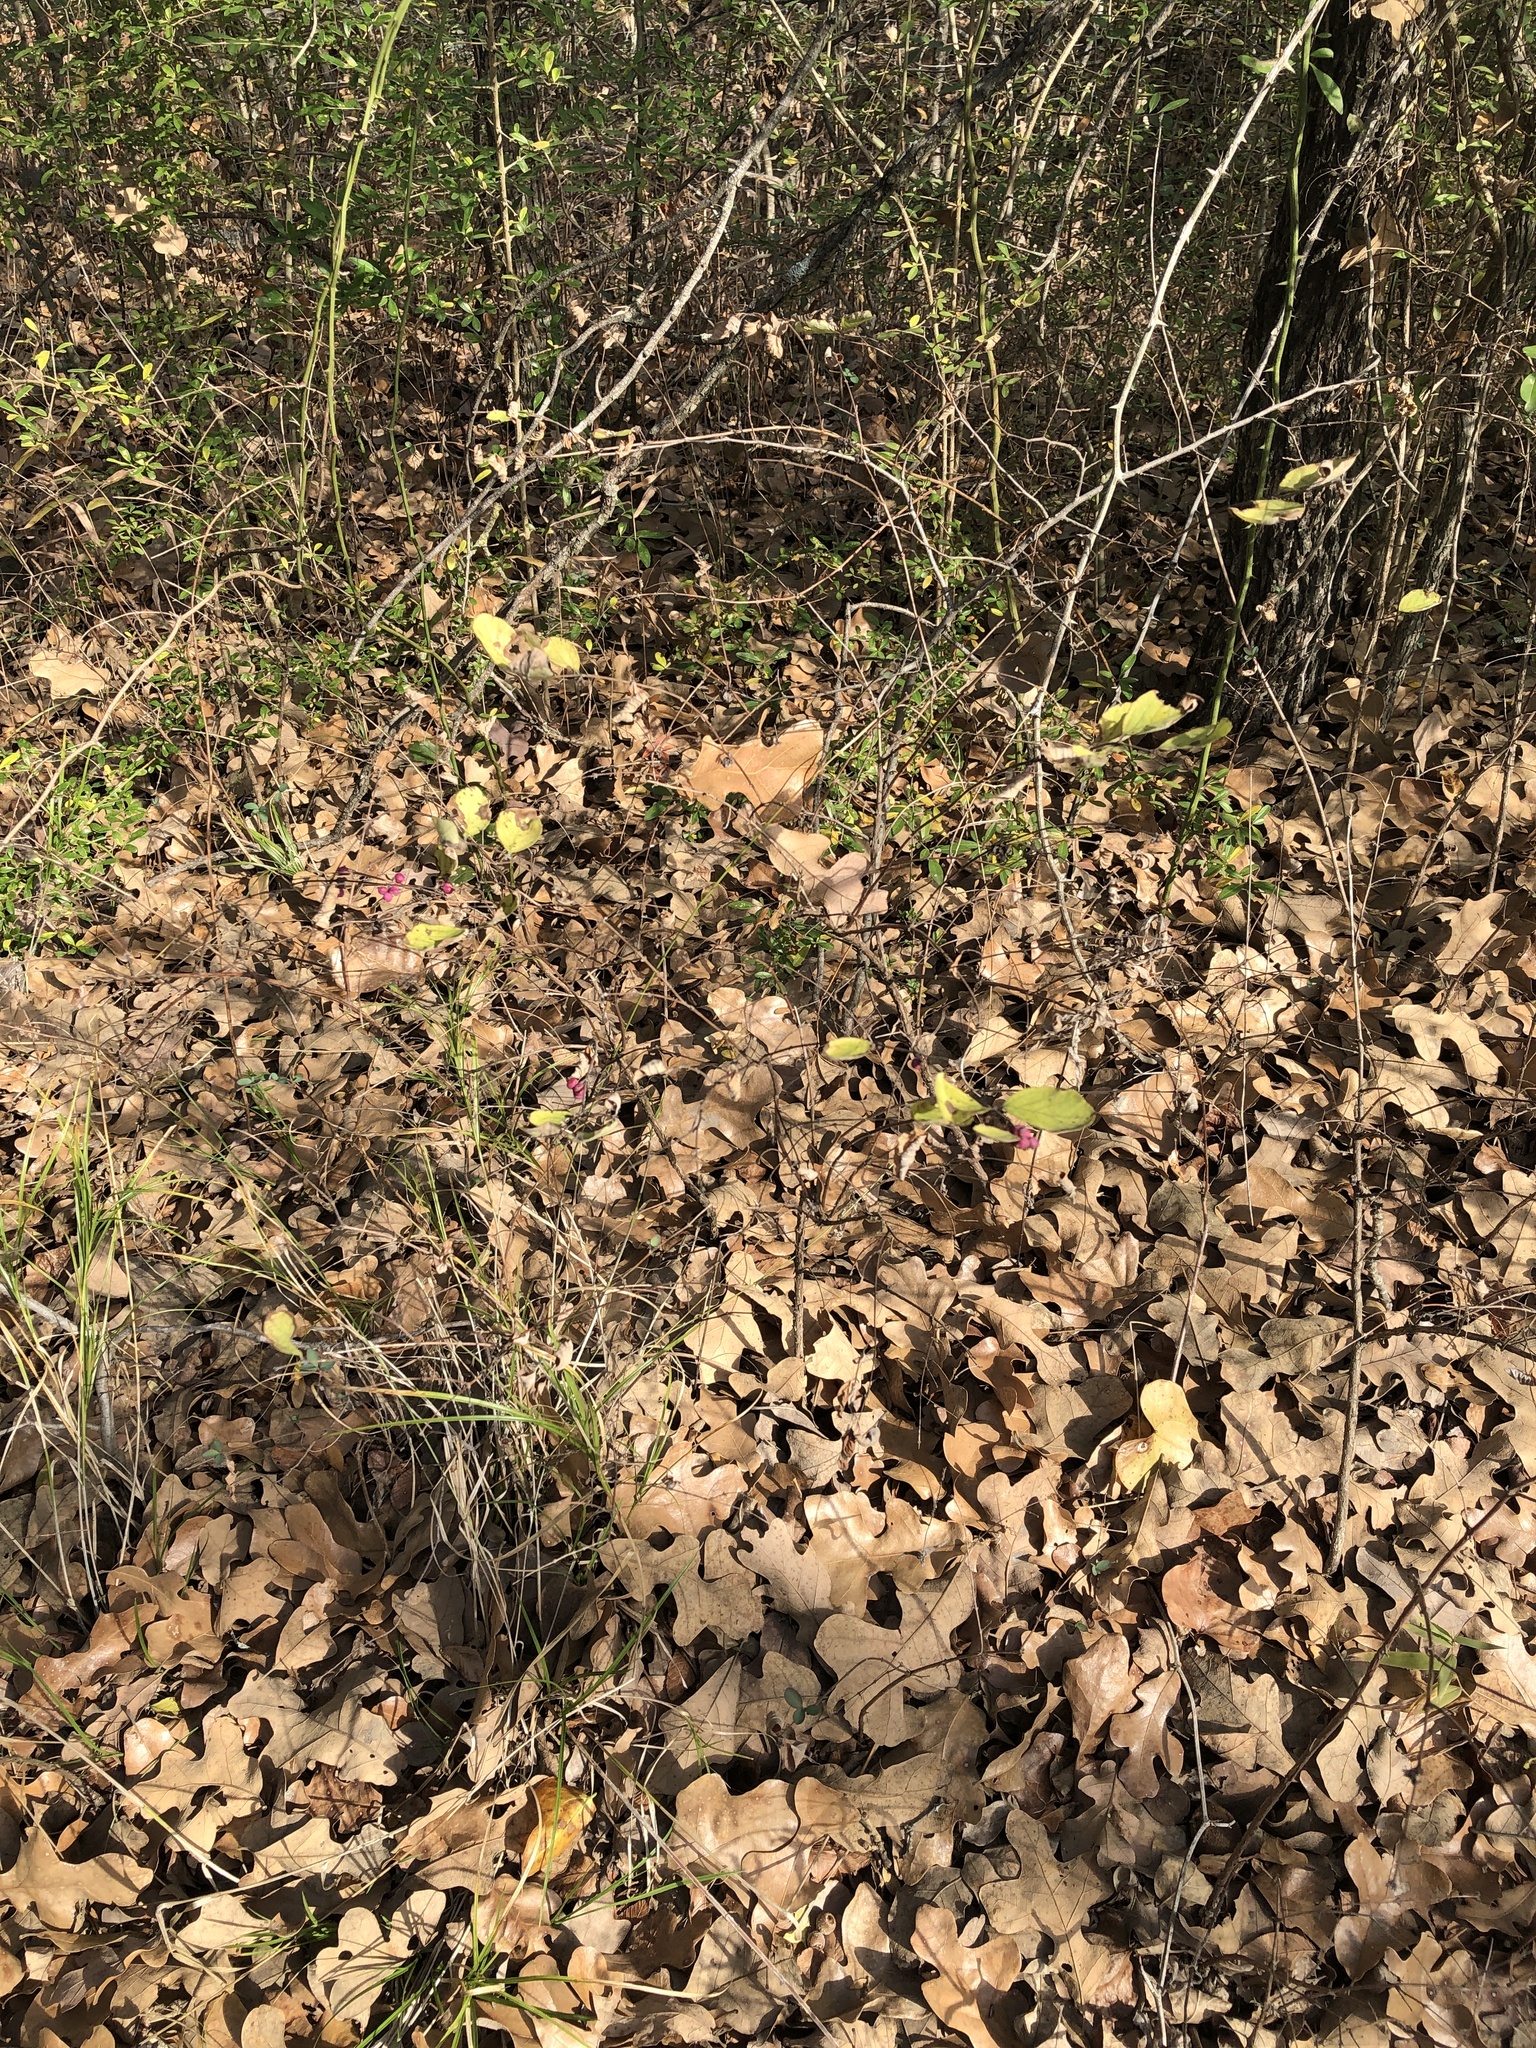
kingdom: Plantae
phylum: Tracheophyta
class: Magnoliopsida
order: Dipsacales
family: Caprifoliaceae
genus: Symphoricarpos
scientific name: Symphoricarpos orbiculatus
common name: Coralberry
